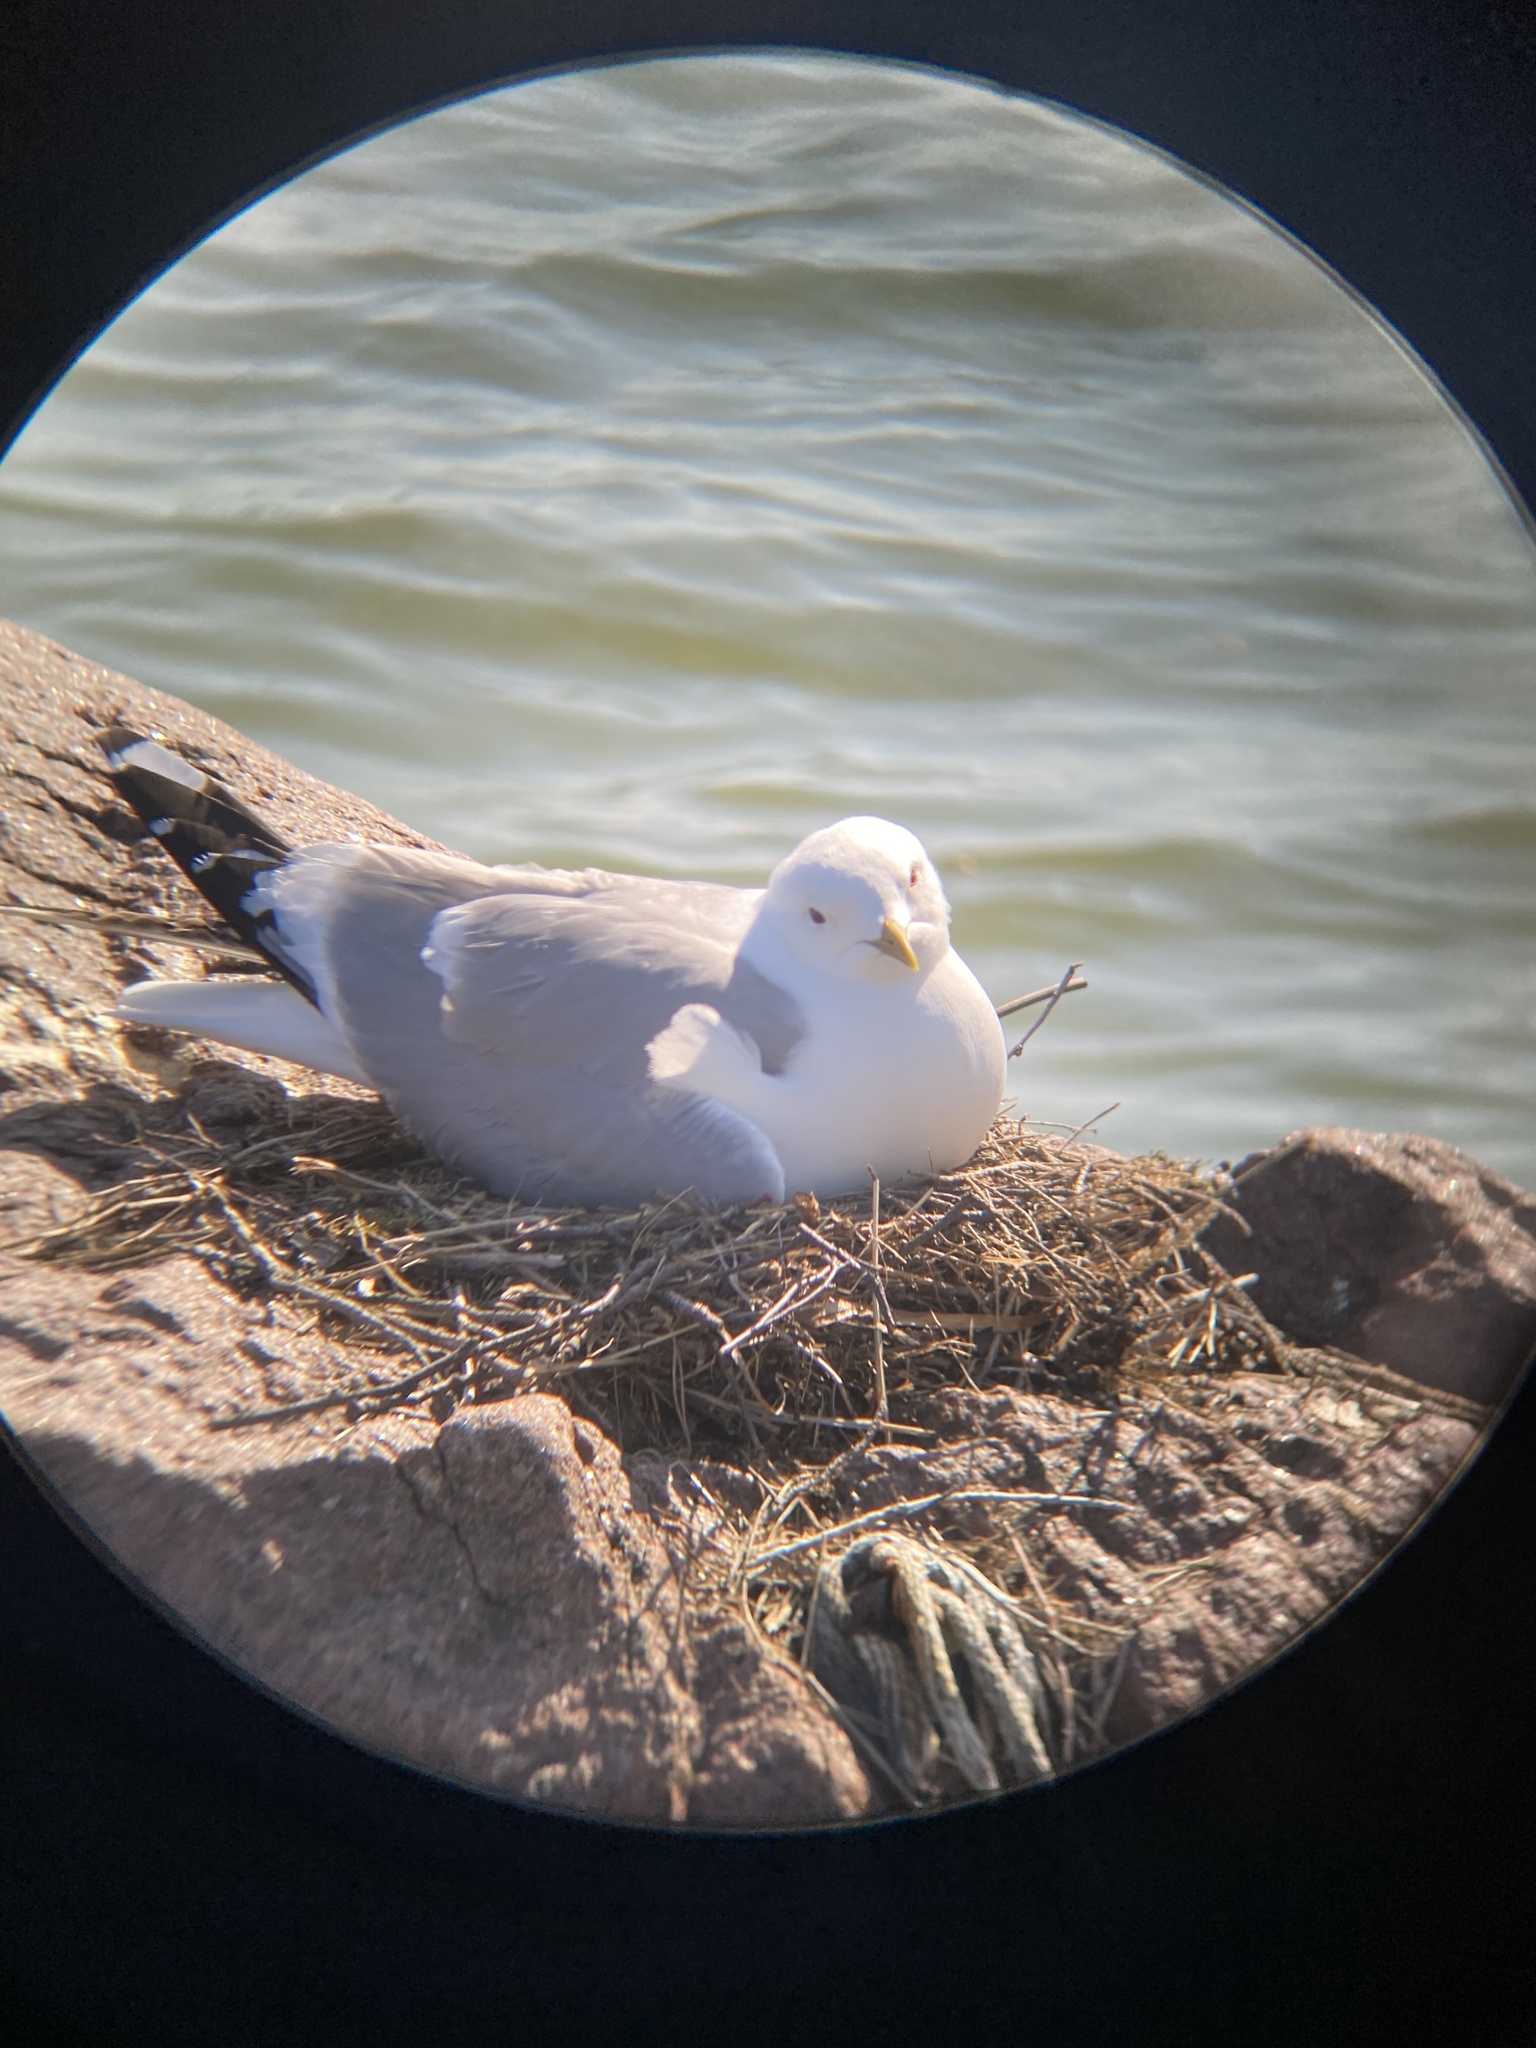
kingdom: Animalia
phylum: Chordata
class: Aves
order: Charadriiformes
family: Laridae
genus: Larus
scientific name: Larus canus
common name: Mew gull
